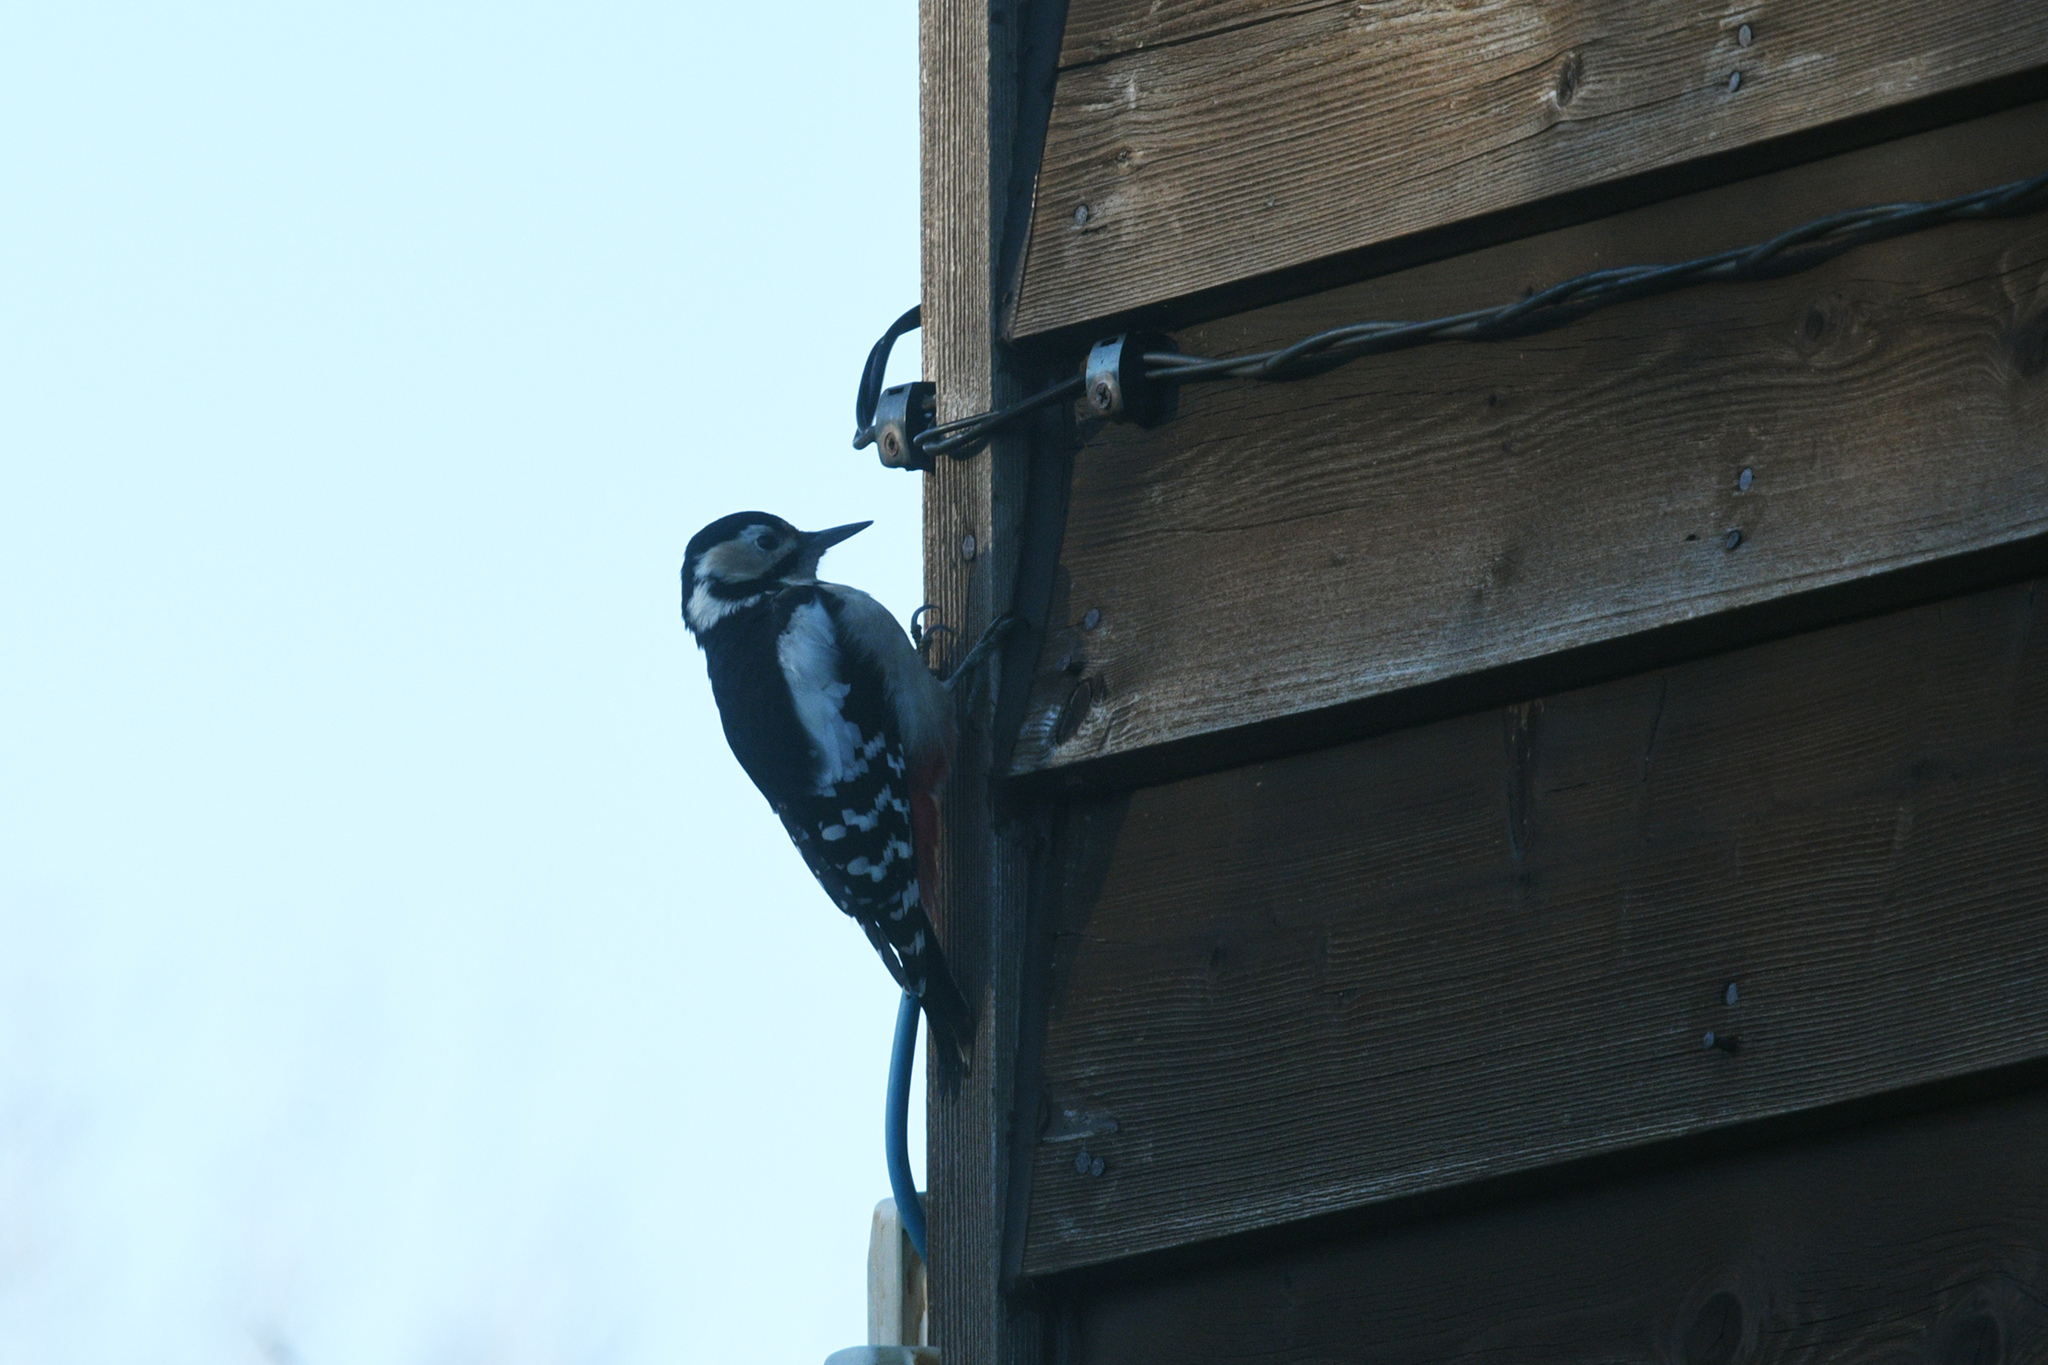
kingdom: Animalia
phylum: Chordata
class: Aves
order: Piciformes
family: Picidae
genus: Dendrocopos
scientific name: Dendrocopos major
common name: Great spotted woodpecker
